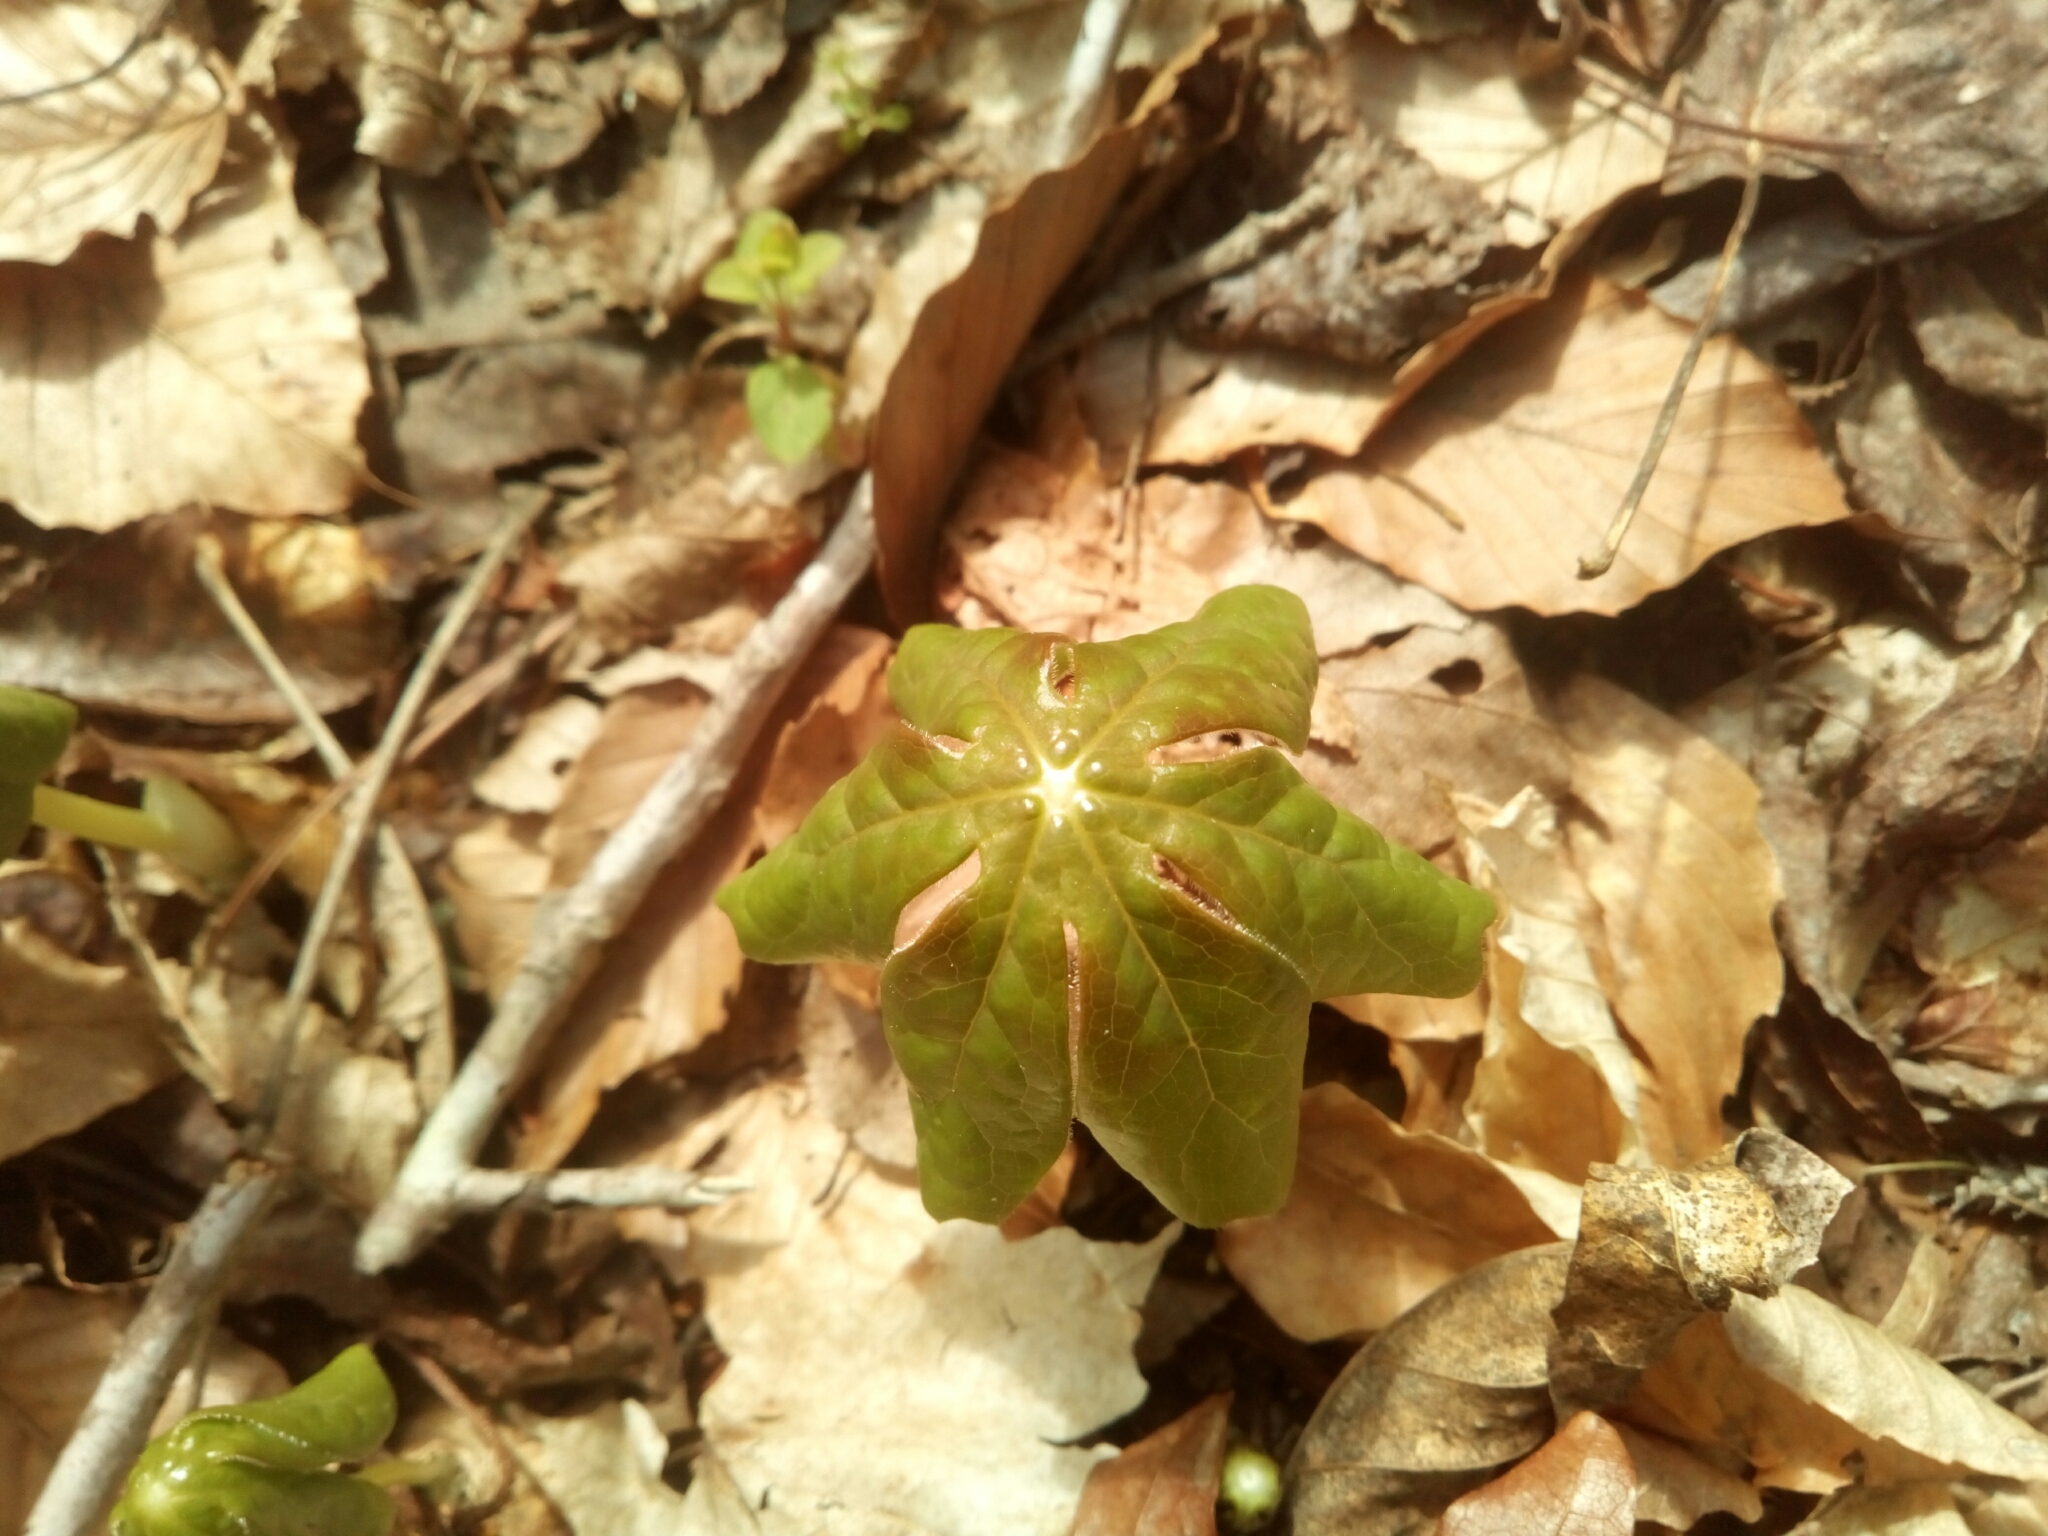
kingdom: Plantae
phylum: Tracheophyta
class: Magnoliopsida
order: Ranunculales
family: Berberidaceae
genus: Podophyllum
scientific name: Podophyllum peltatum
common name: Wild mandrake
